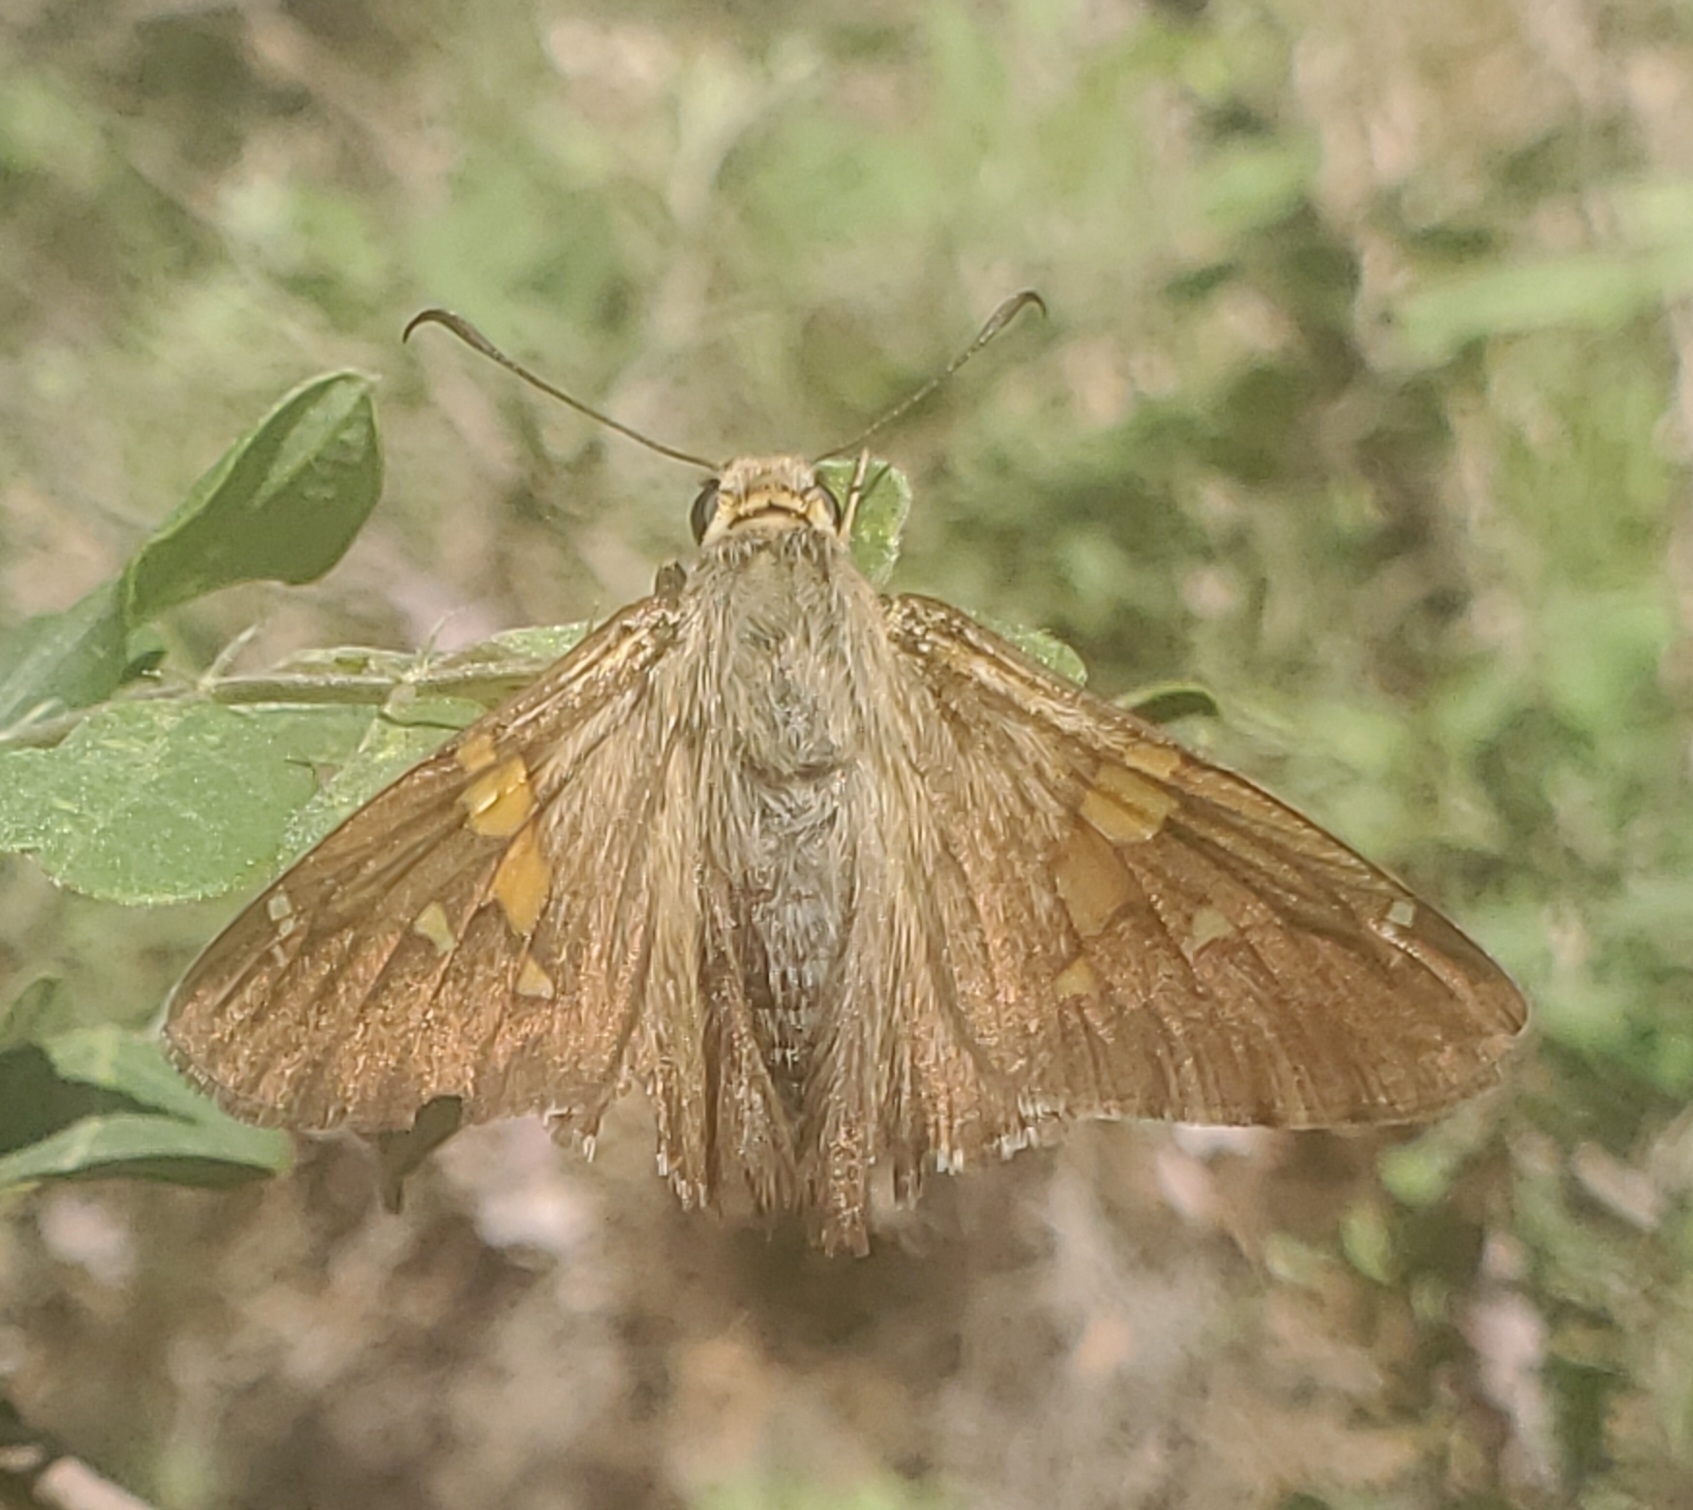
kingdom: Animalia
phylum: Arthropoda
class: Insecta
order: Lepidoptera
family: Hesperiidae
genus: Epargyreus
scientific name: Epargyreus clarus
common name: Silver-spotted skipper
